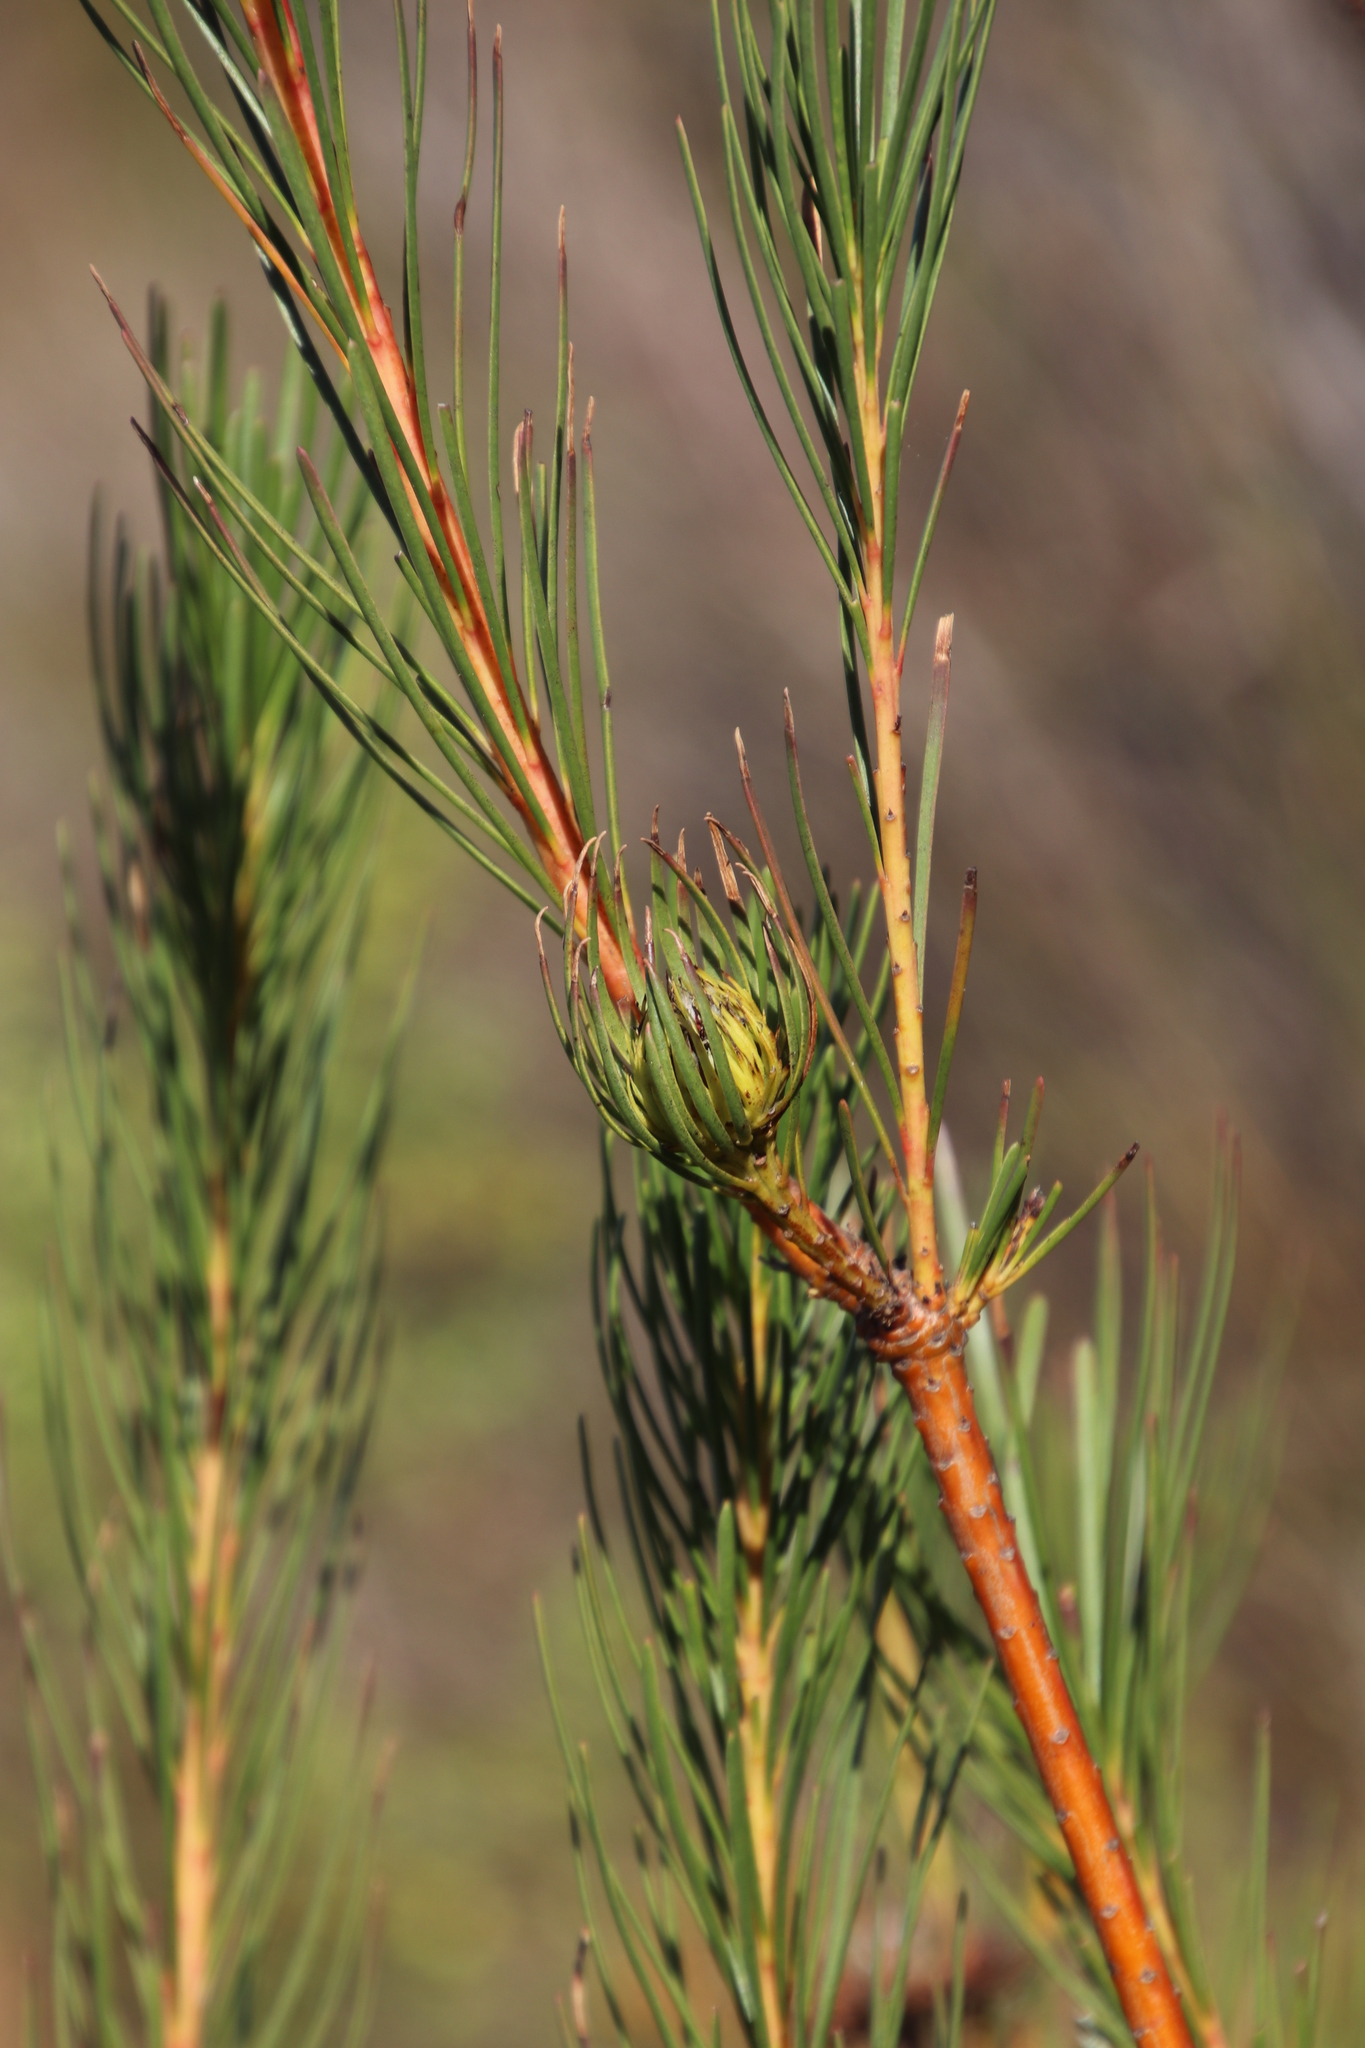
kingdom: Plantae
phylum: Tracheophyta
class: Magnoliopsida
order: Proteales
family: Proteaceae
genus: Aulax
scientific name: Aulax pallasia
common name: Needle-leaf featherbush
